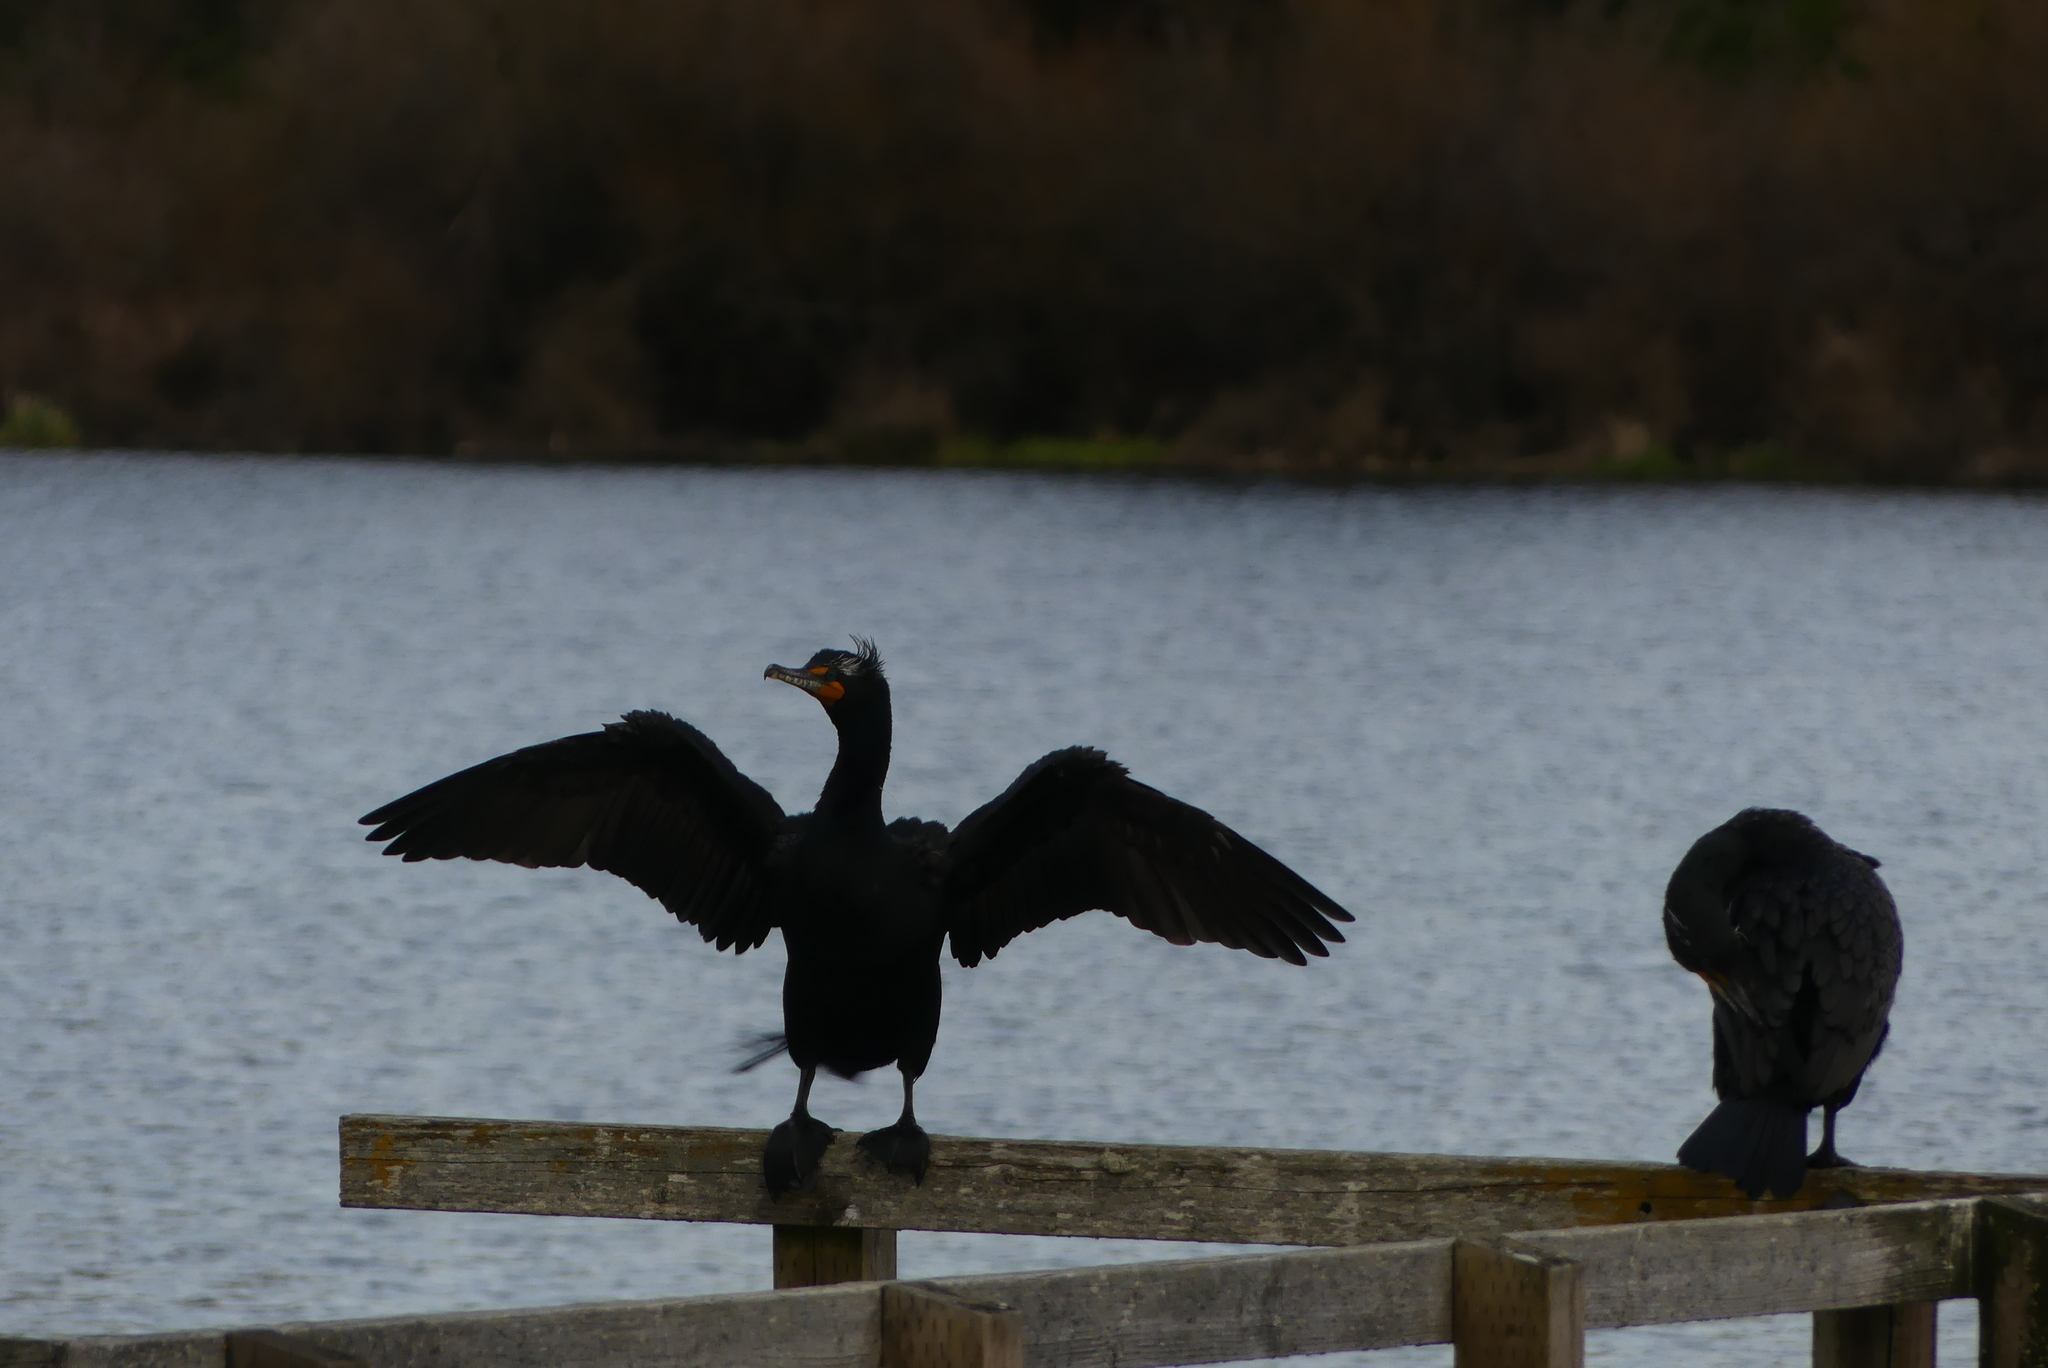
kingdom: Animalia
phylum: Chordata
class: Aves
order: Suliformes
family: Phalacrocoracidae
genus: Phalacrocorax
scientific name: Phalacrocorax auritus
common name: Double-crested cormorant
